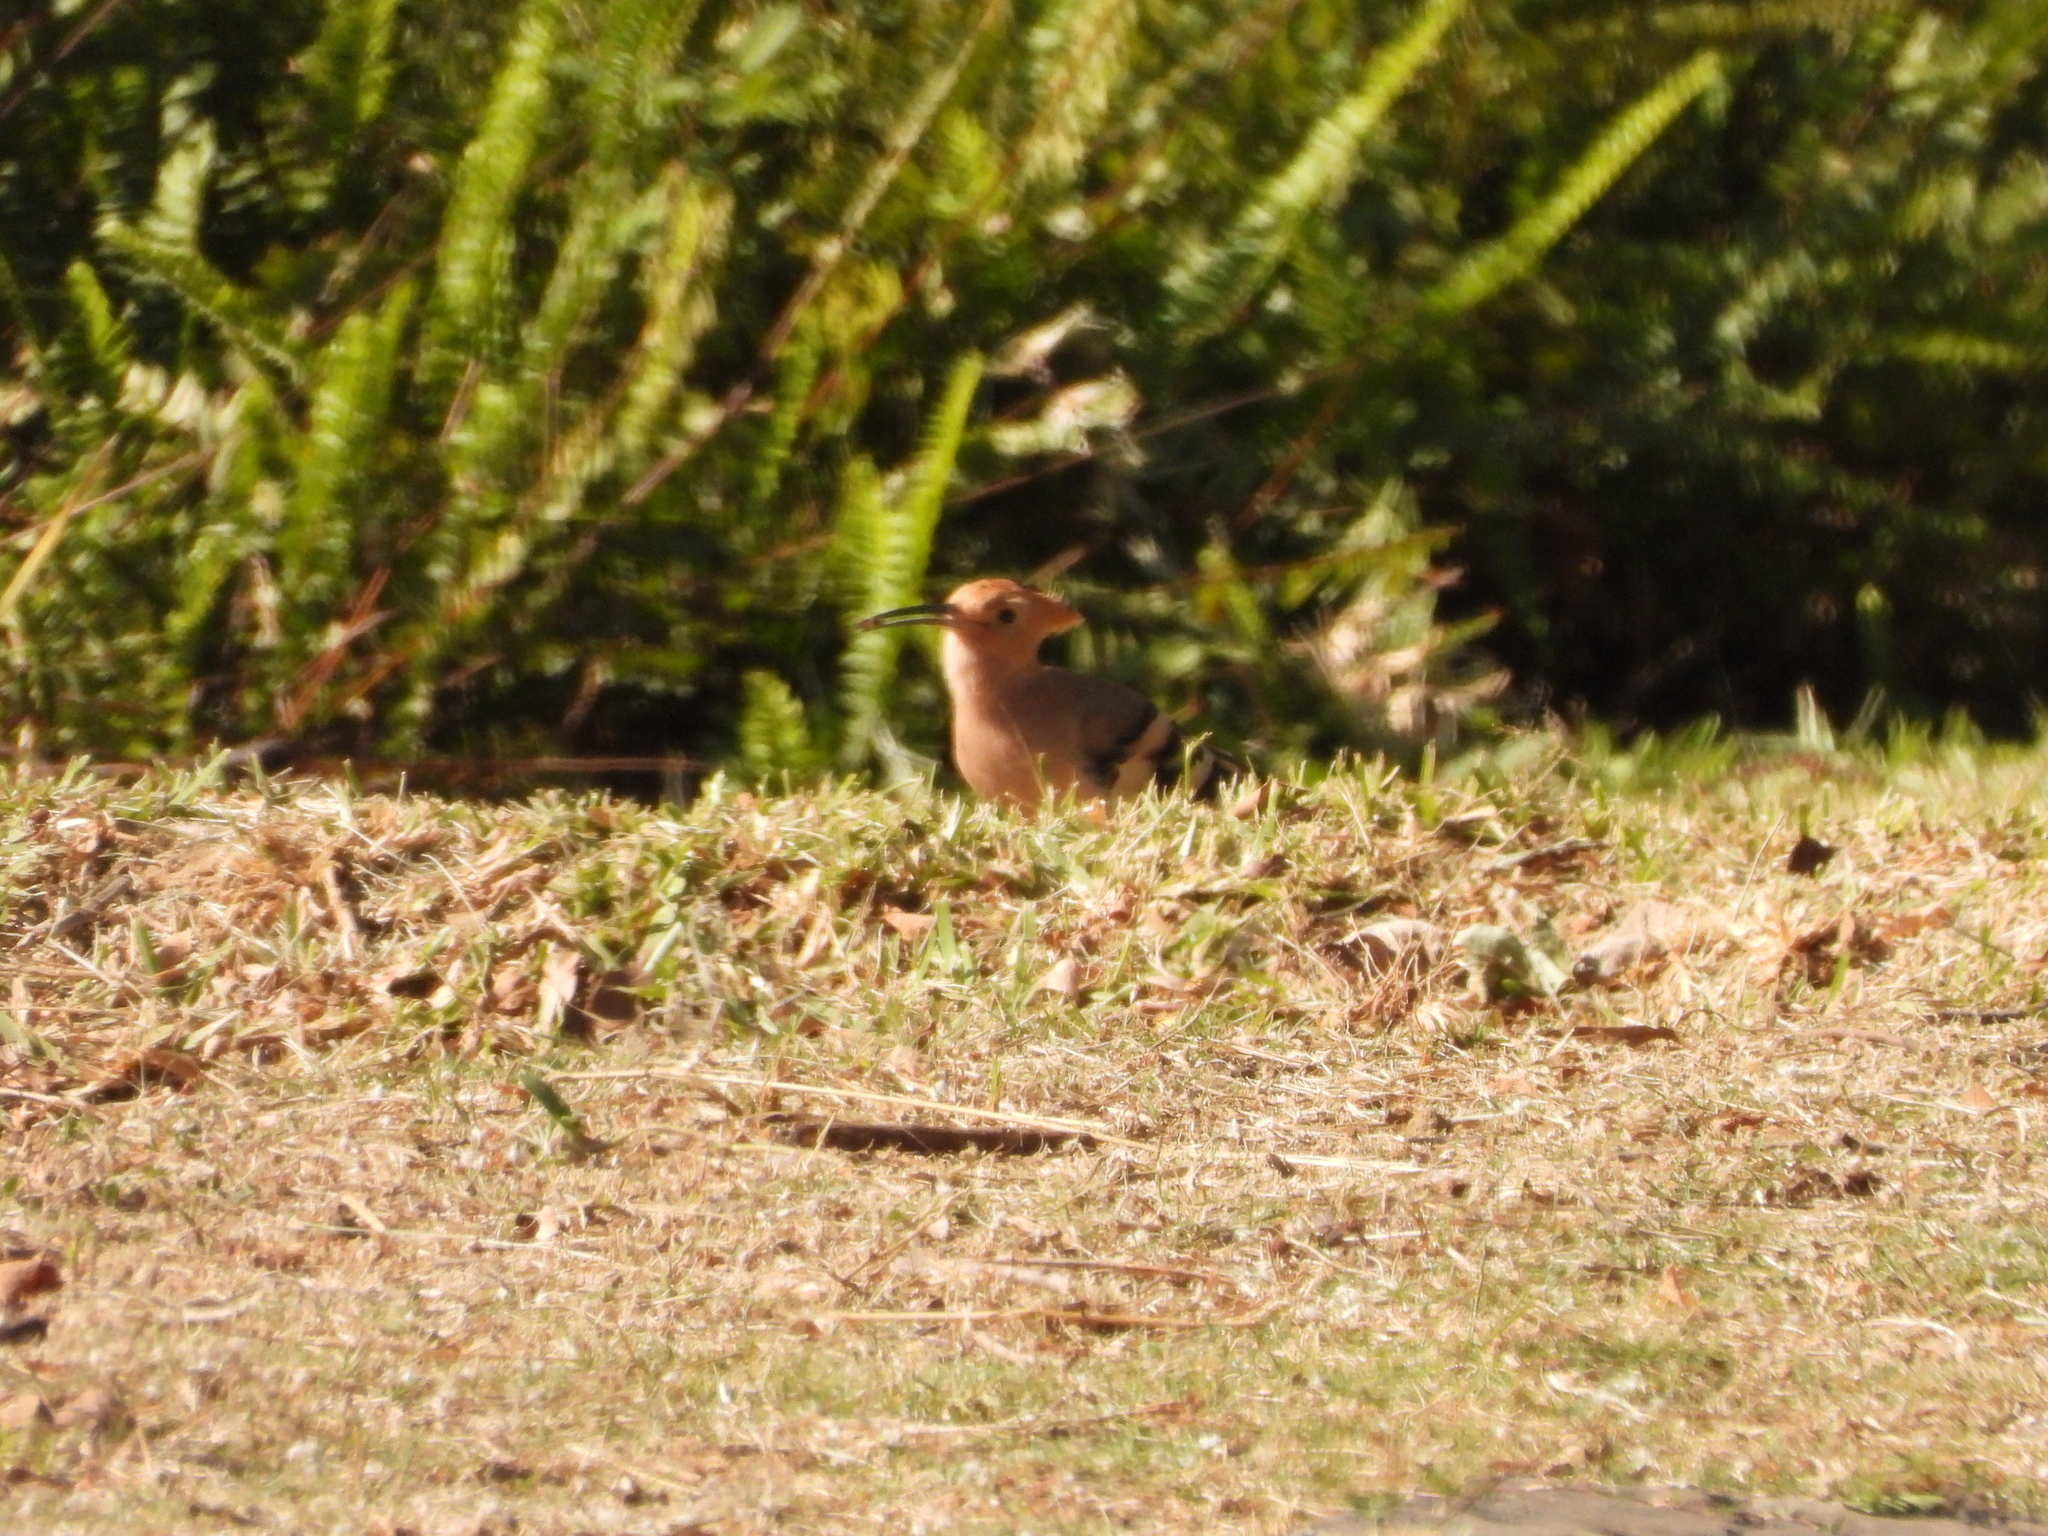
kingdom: Animalia
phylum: Chordata
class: Aves
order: Bucerotiformes
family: Upupidae
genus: Upupa
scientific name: Upupa epops
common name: Eurasian hoopoe
